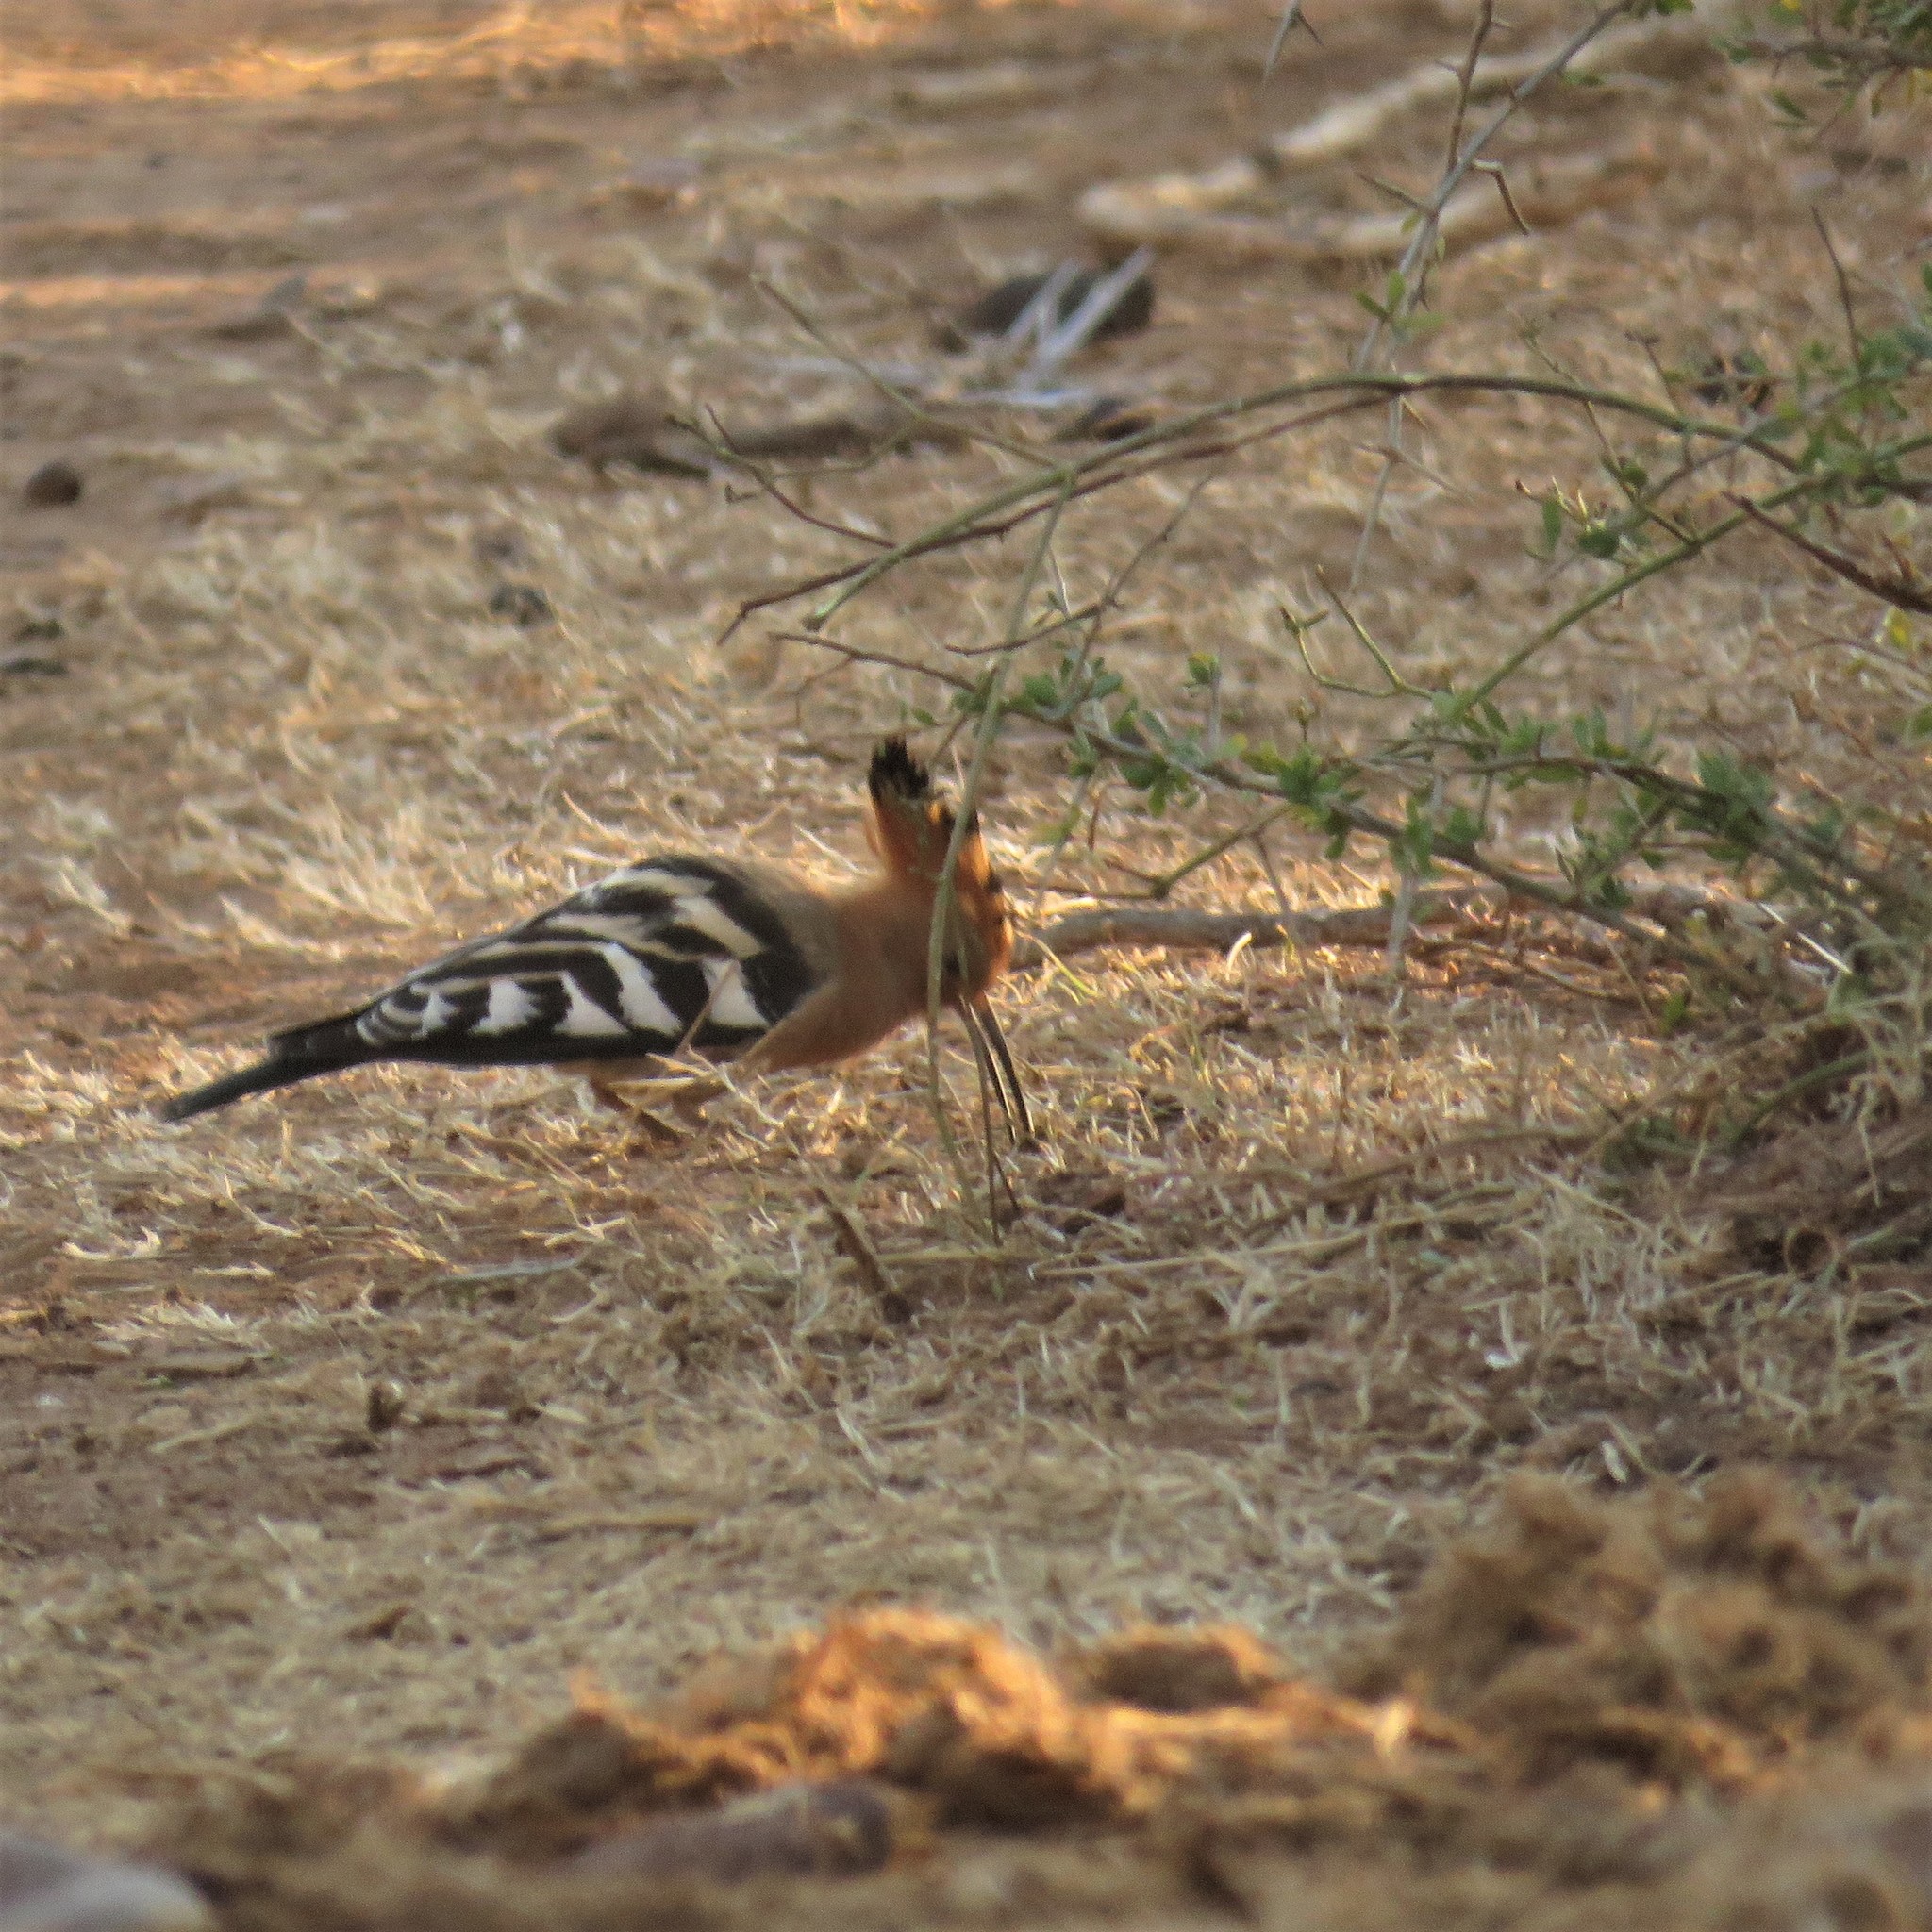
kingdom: Animalia
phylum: Chordata
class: Aves
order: Bucerotiformes
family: Upupidae
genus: Upupa
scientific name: Upupa africana
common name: African hoopoe
